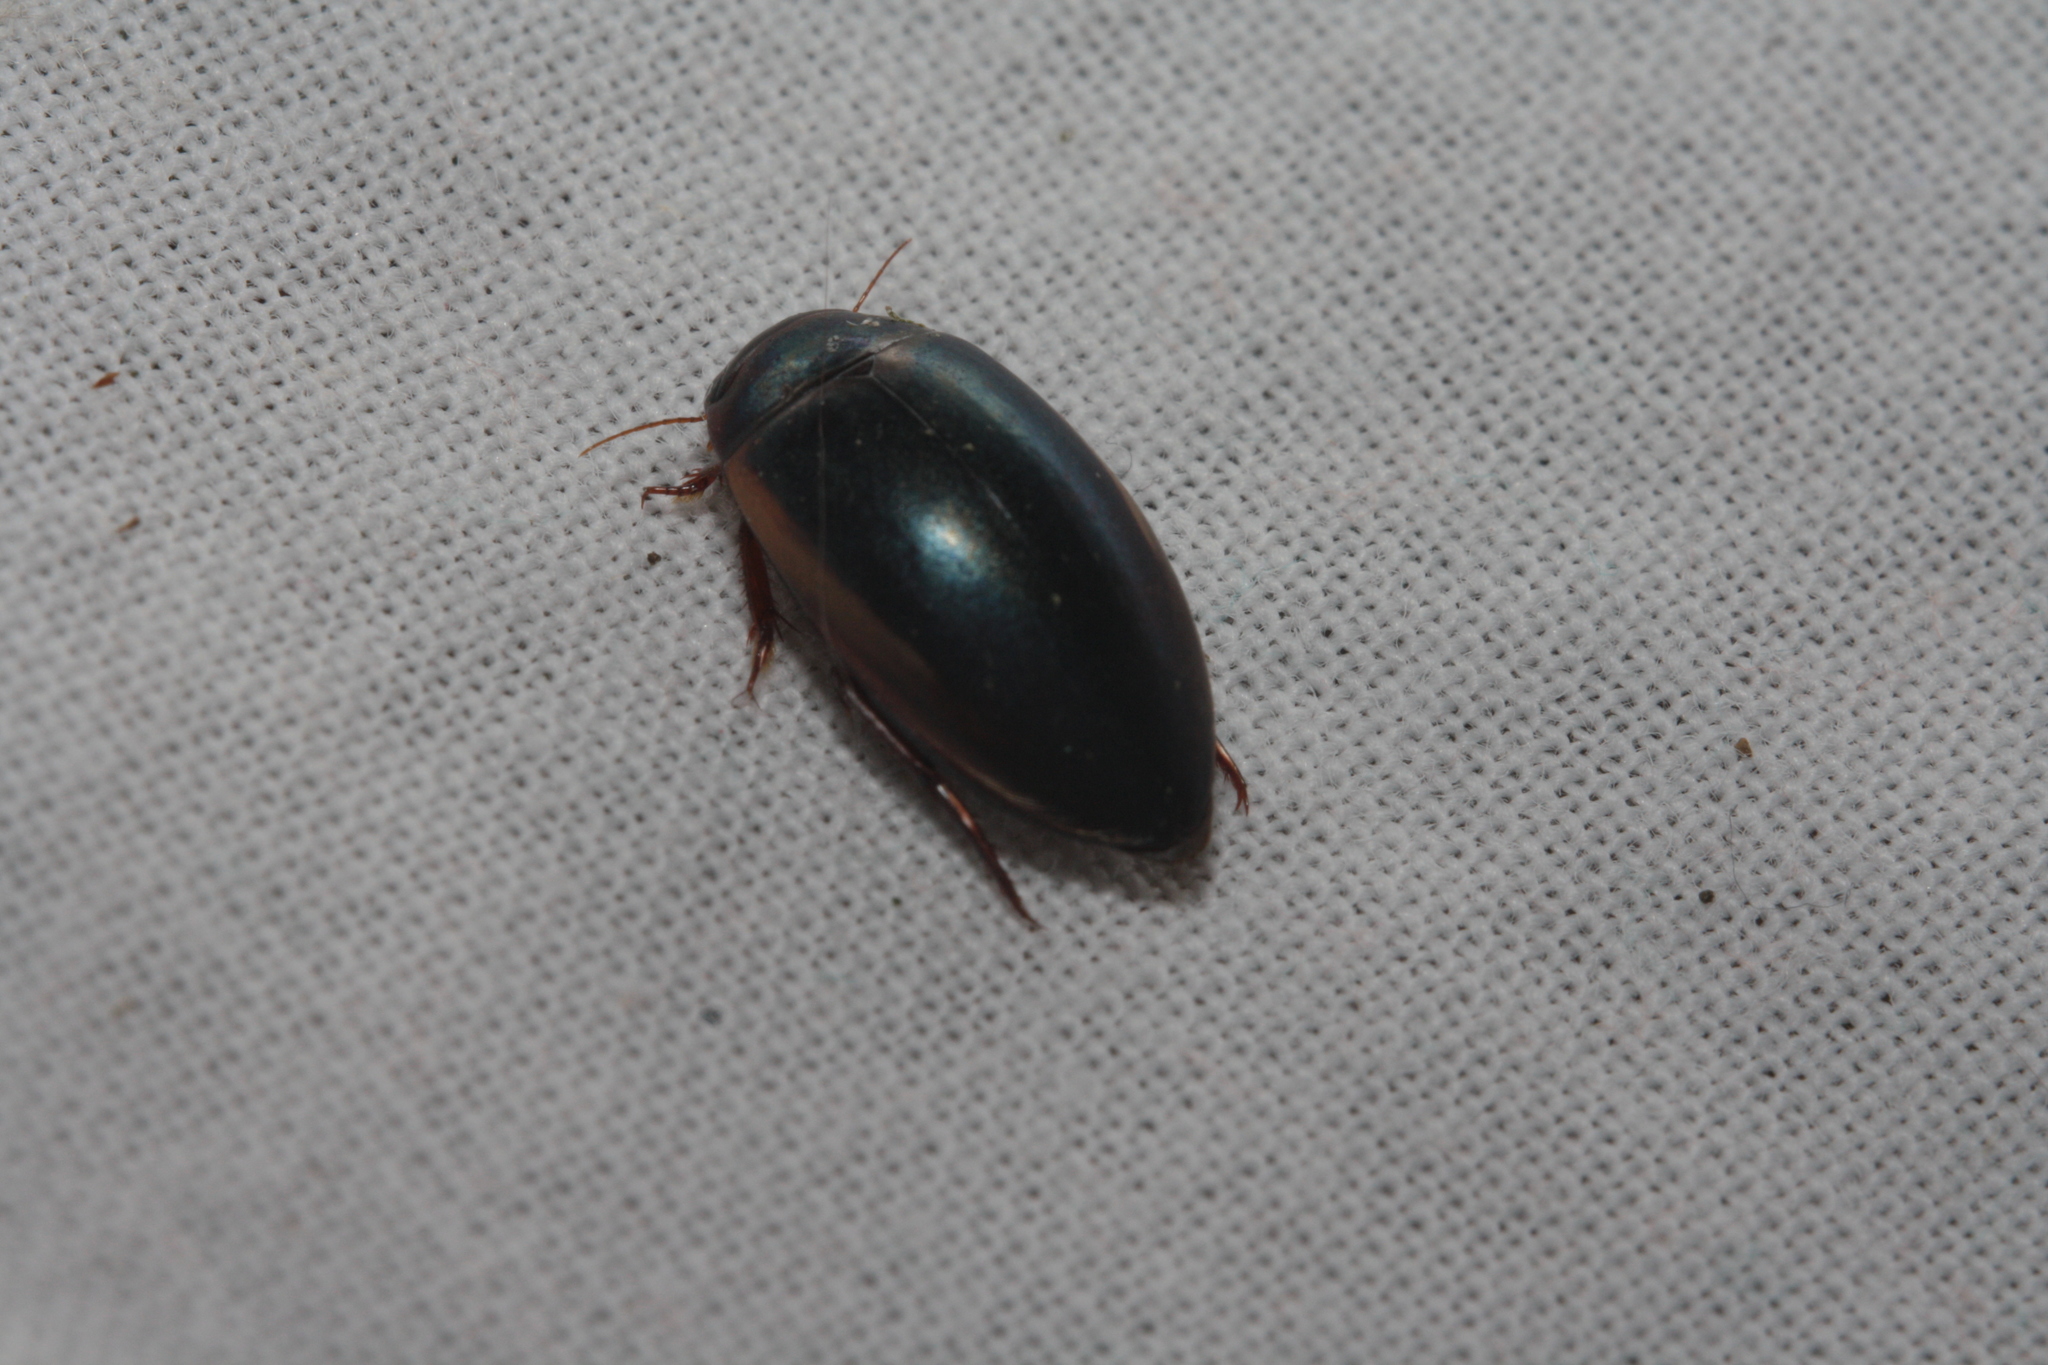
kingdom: Animalia
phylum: Arthropoda
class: Insecta
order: Coleoptera
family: Dytiscidae
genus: Ilybius
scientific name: Ilybius fuliginosus
